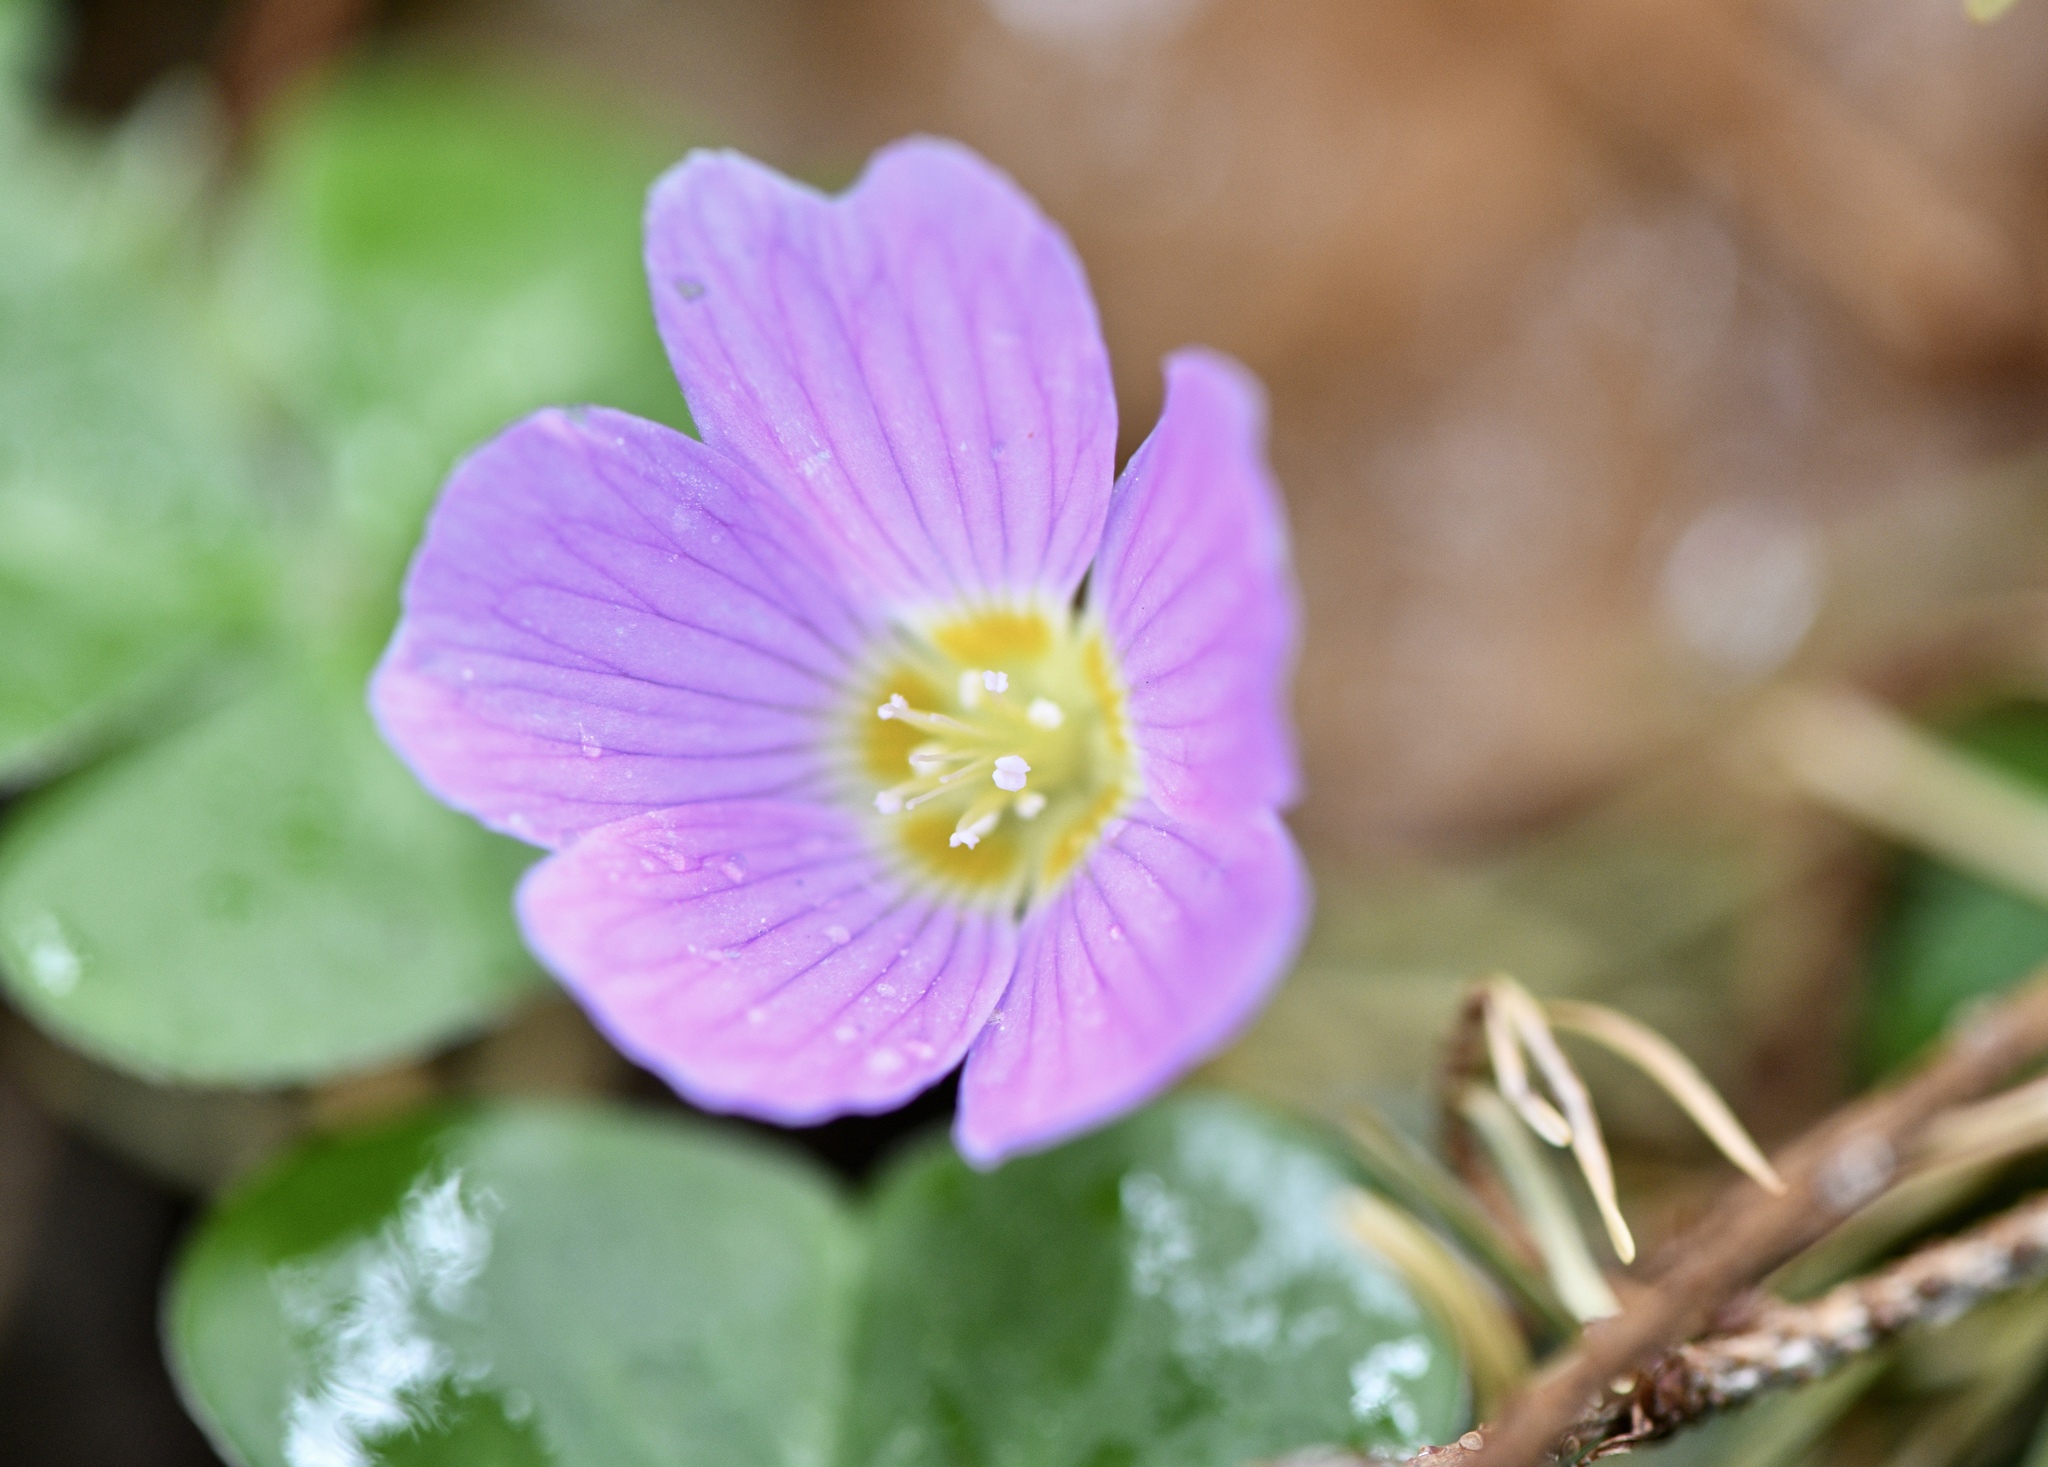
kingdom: Plantae
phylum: Tracheophyta
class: Magnoliopsida
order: Oxalidales
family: Oxalidaceae
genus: Oxalis
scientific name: Oxalis oregana
